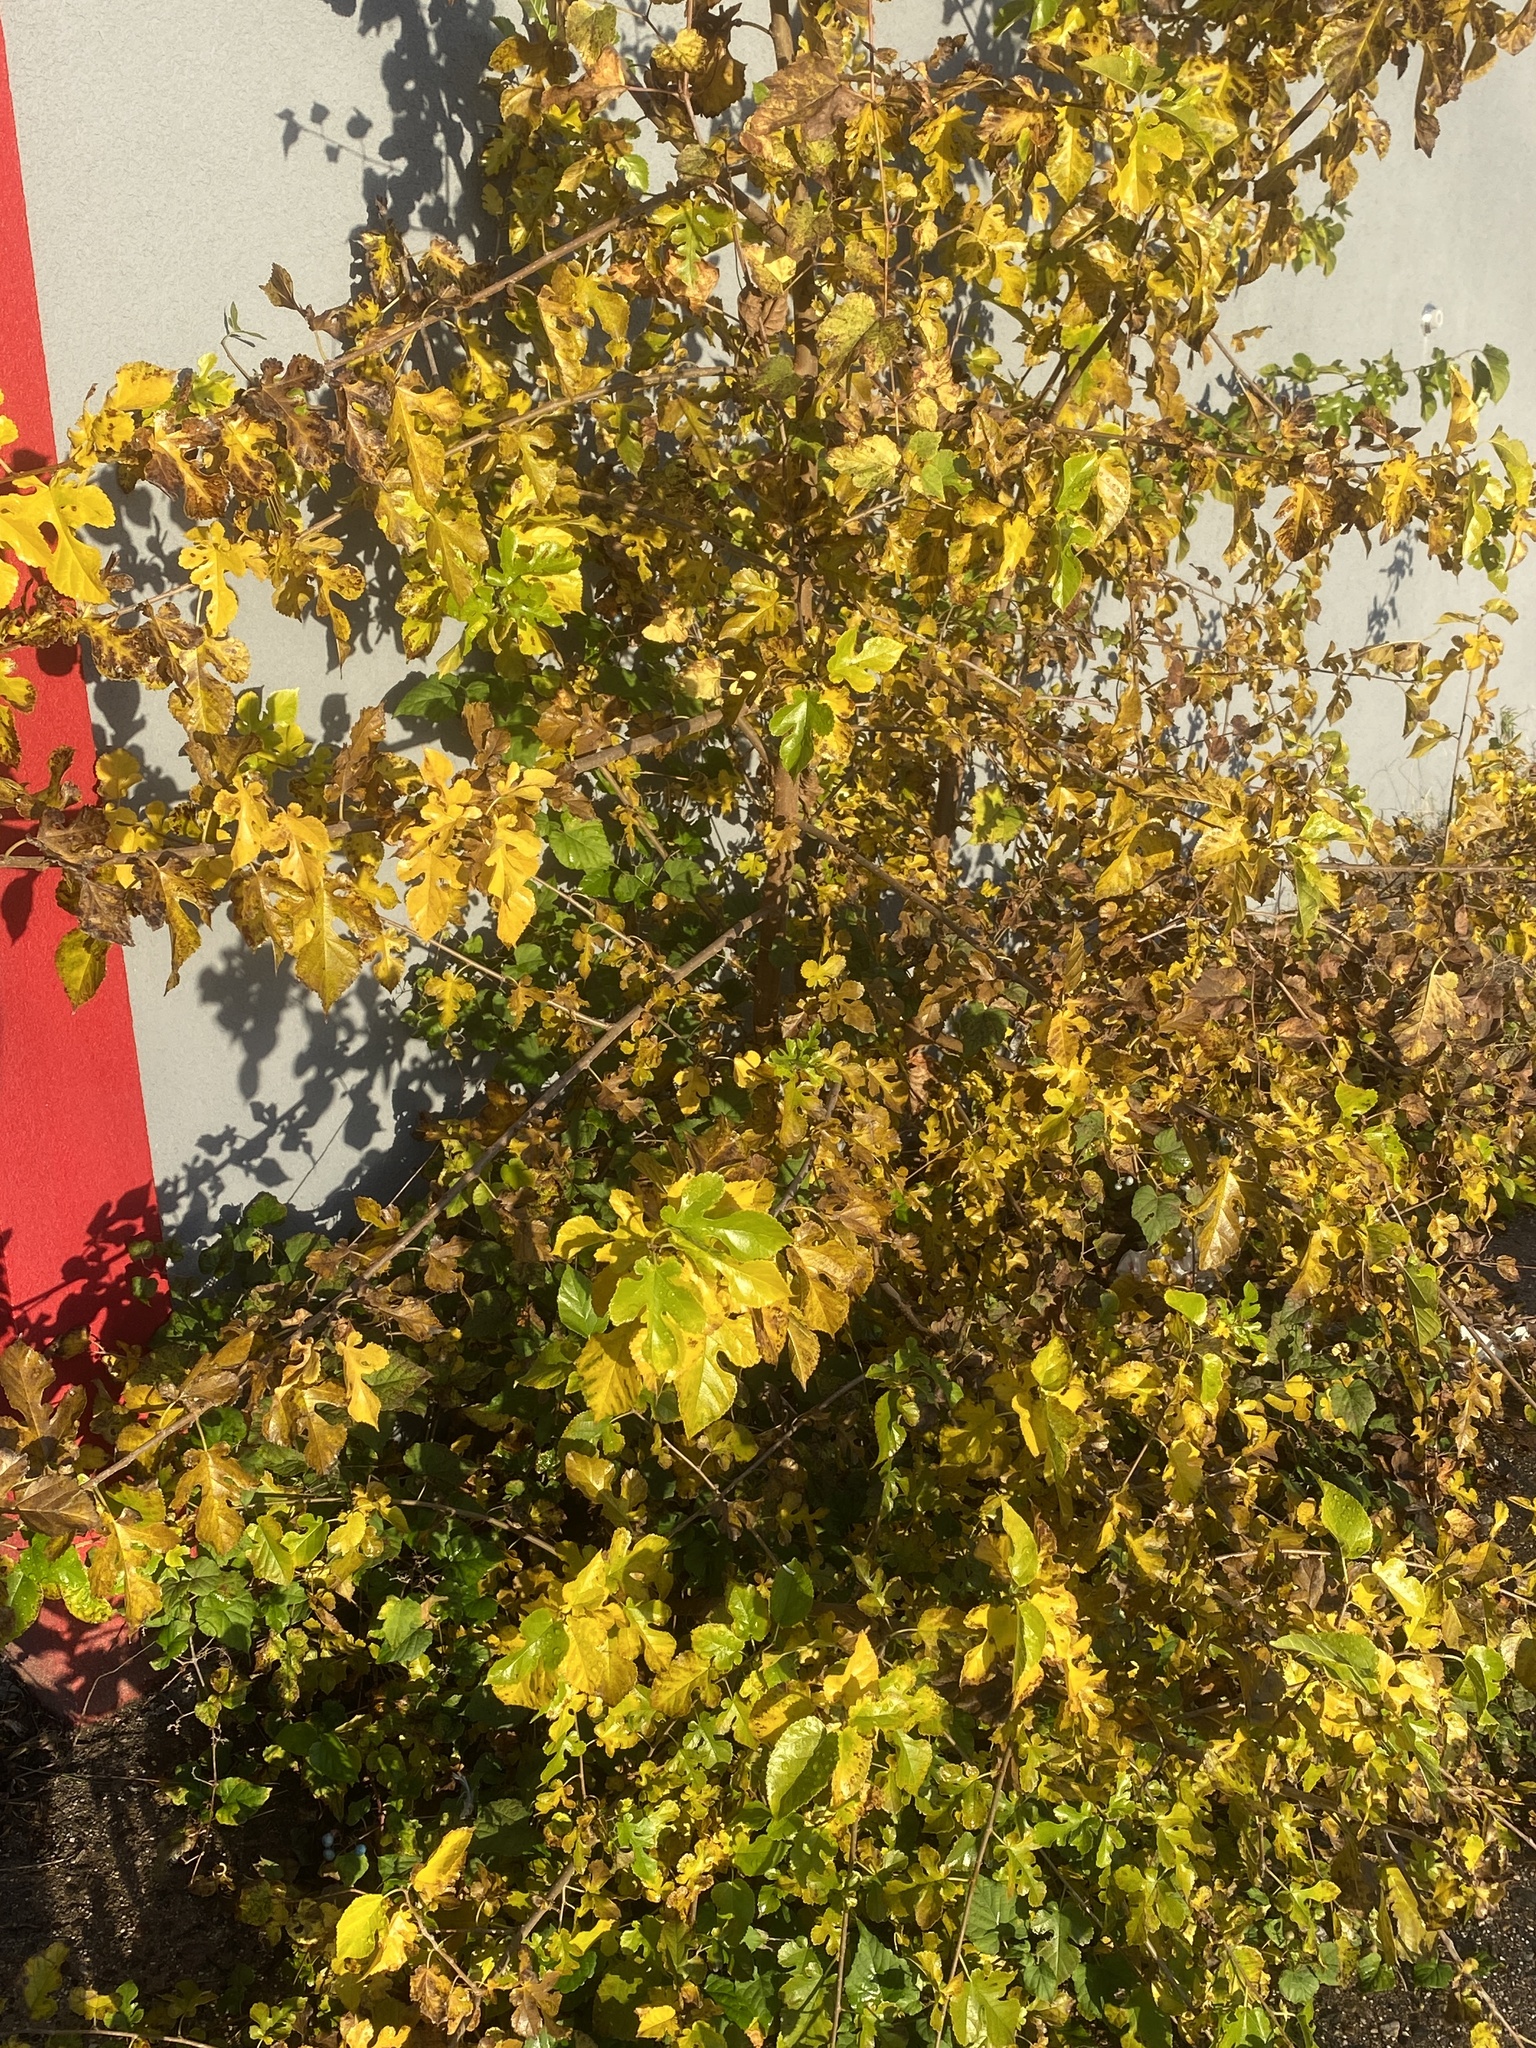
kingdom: Plantae
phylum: Tracheophyta
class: Magnoliopsida
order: Rosales
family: Moraceae
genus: Morus
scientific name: Morus alba
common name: White mulberry
